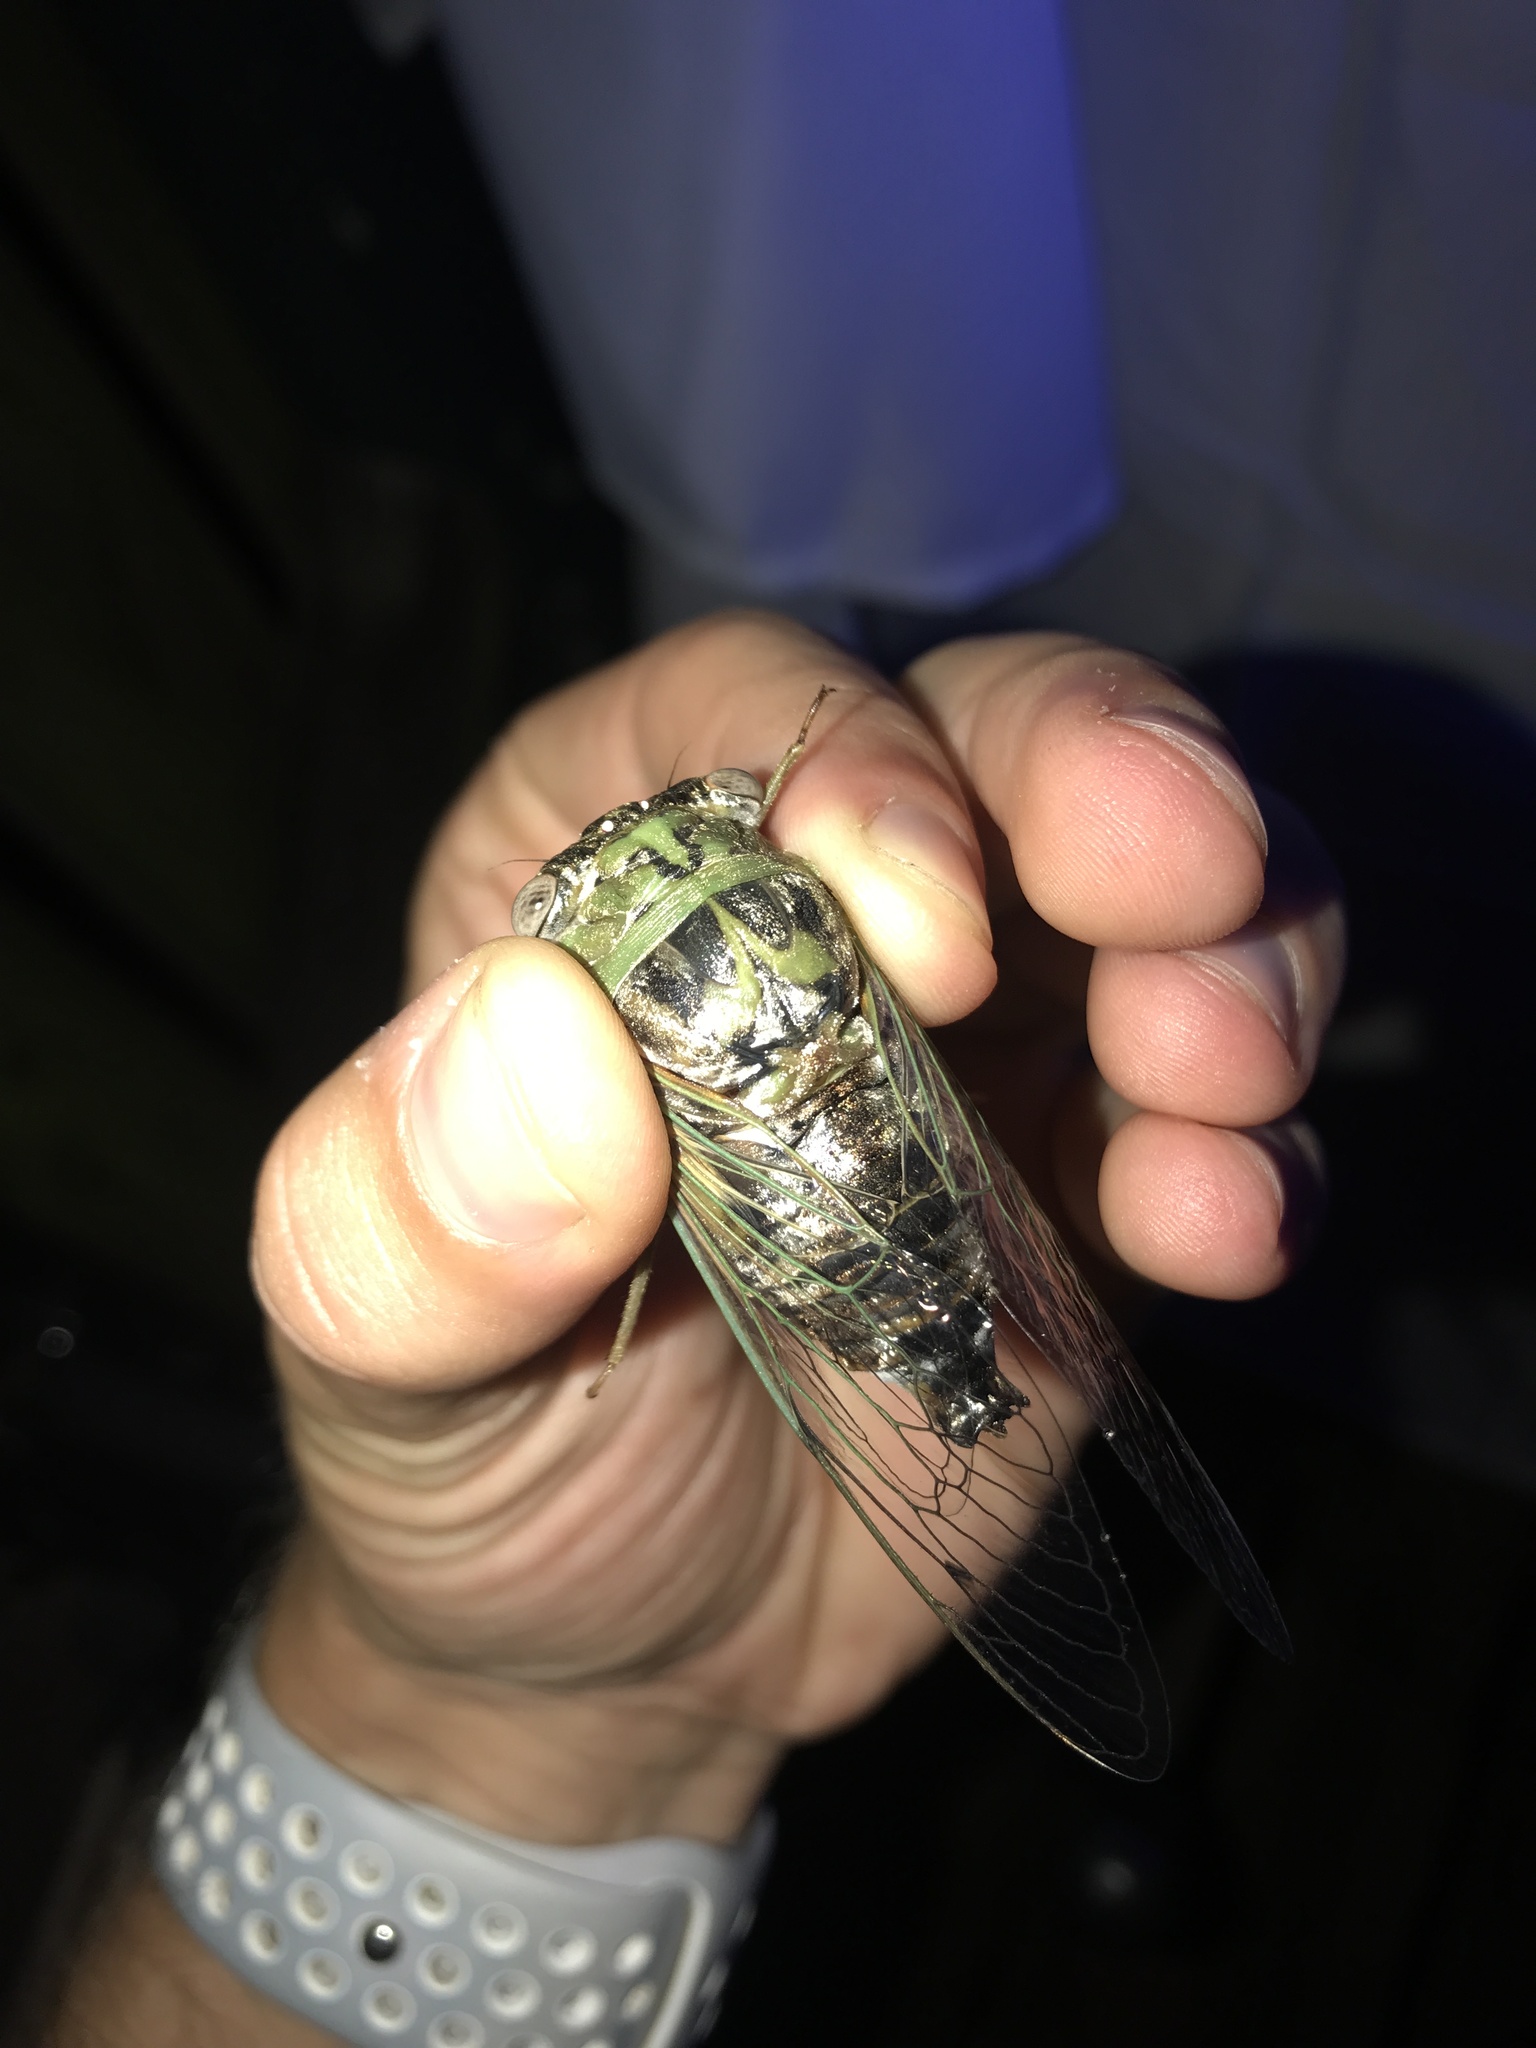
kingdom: Animalia
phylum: Arthropoda
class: Insecta
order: Hemiptera
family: Cicadidae
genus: Megatibicen
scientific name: Megatibicen resh
